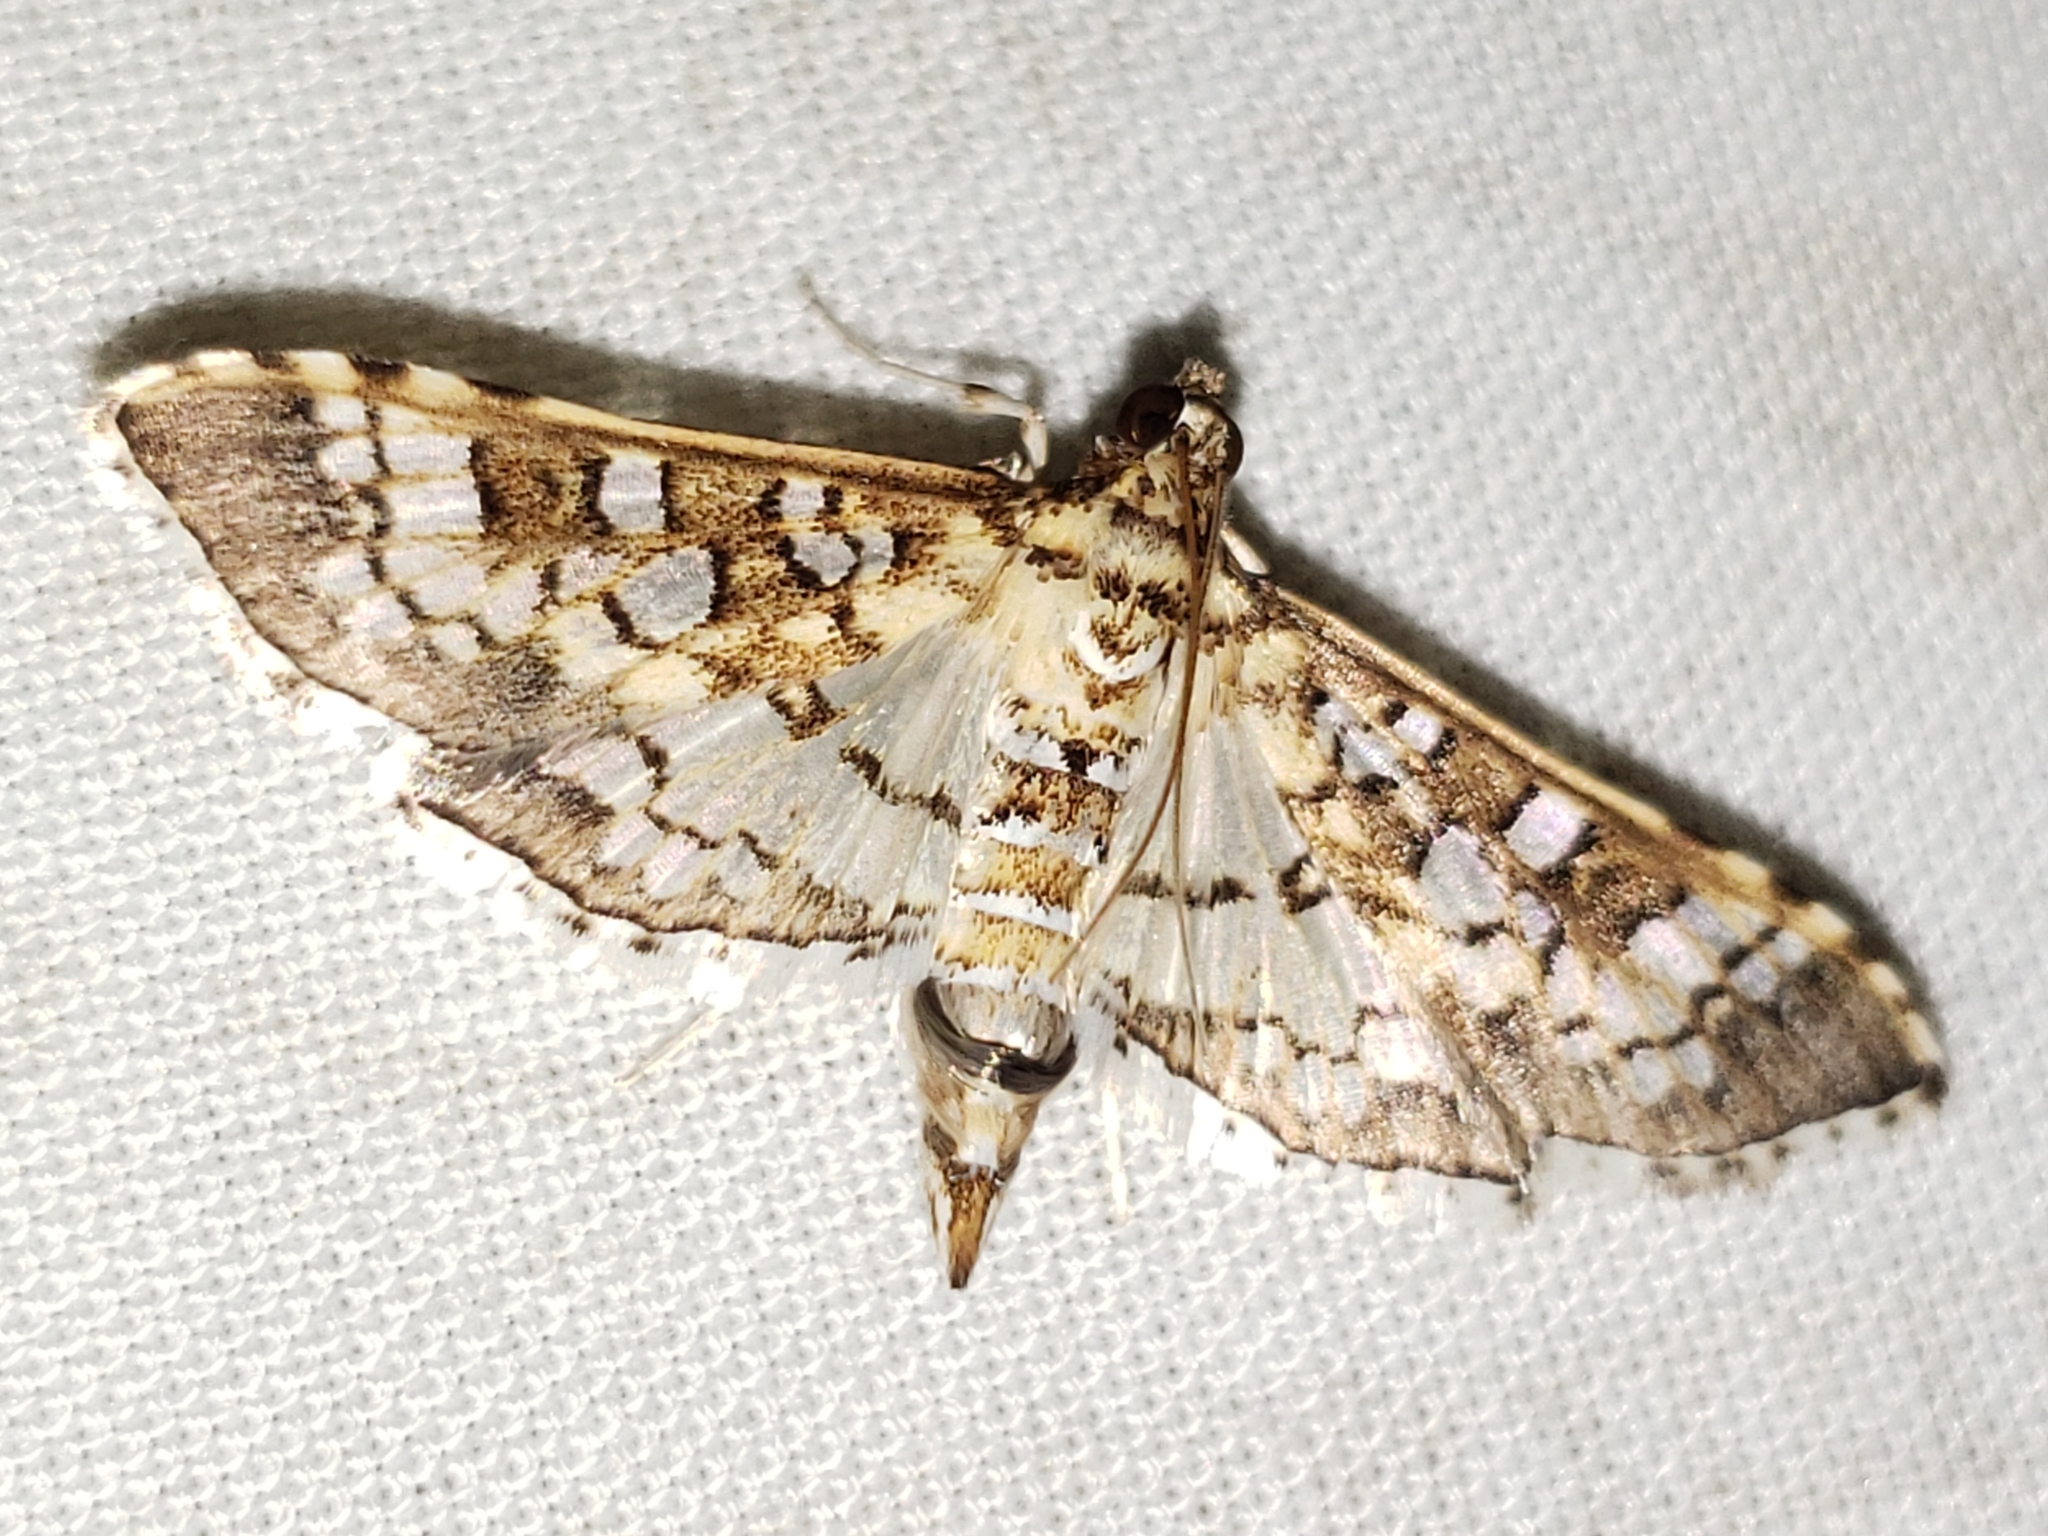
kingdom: Animalia
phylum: Arthropoda
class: Insecta
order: Lepidoptera
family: Crambidae
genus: Samea
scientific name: Samea ecclesialis
